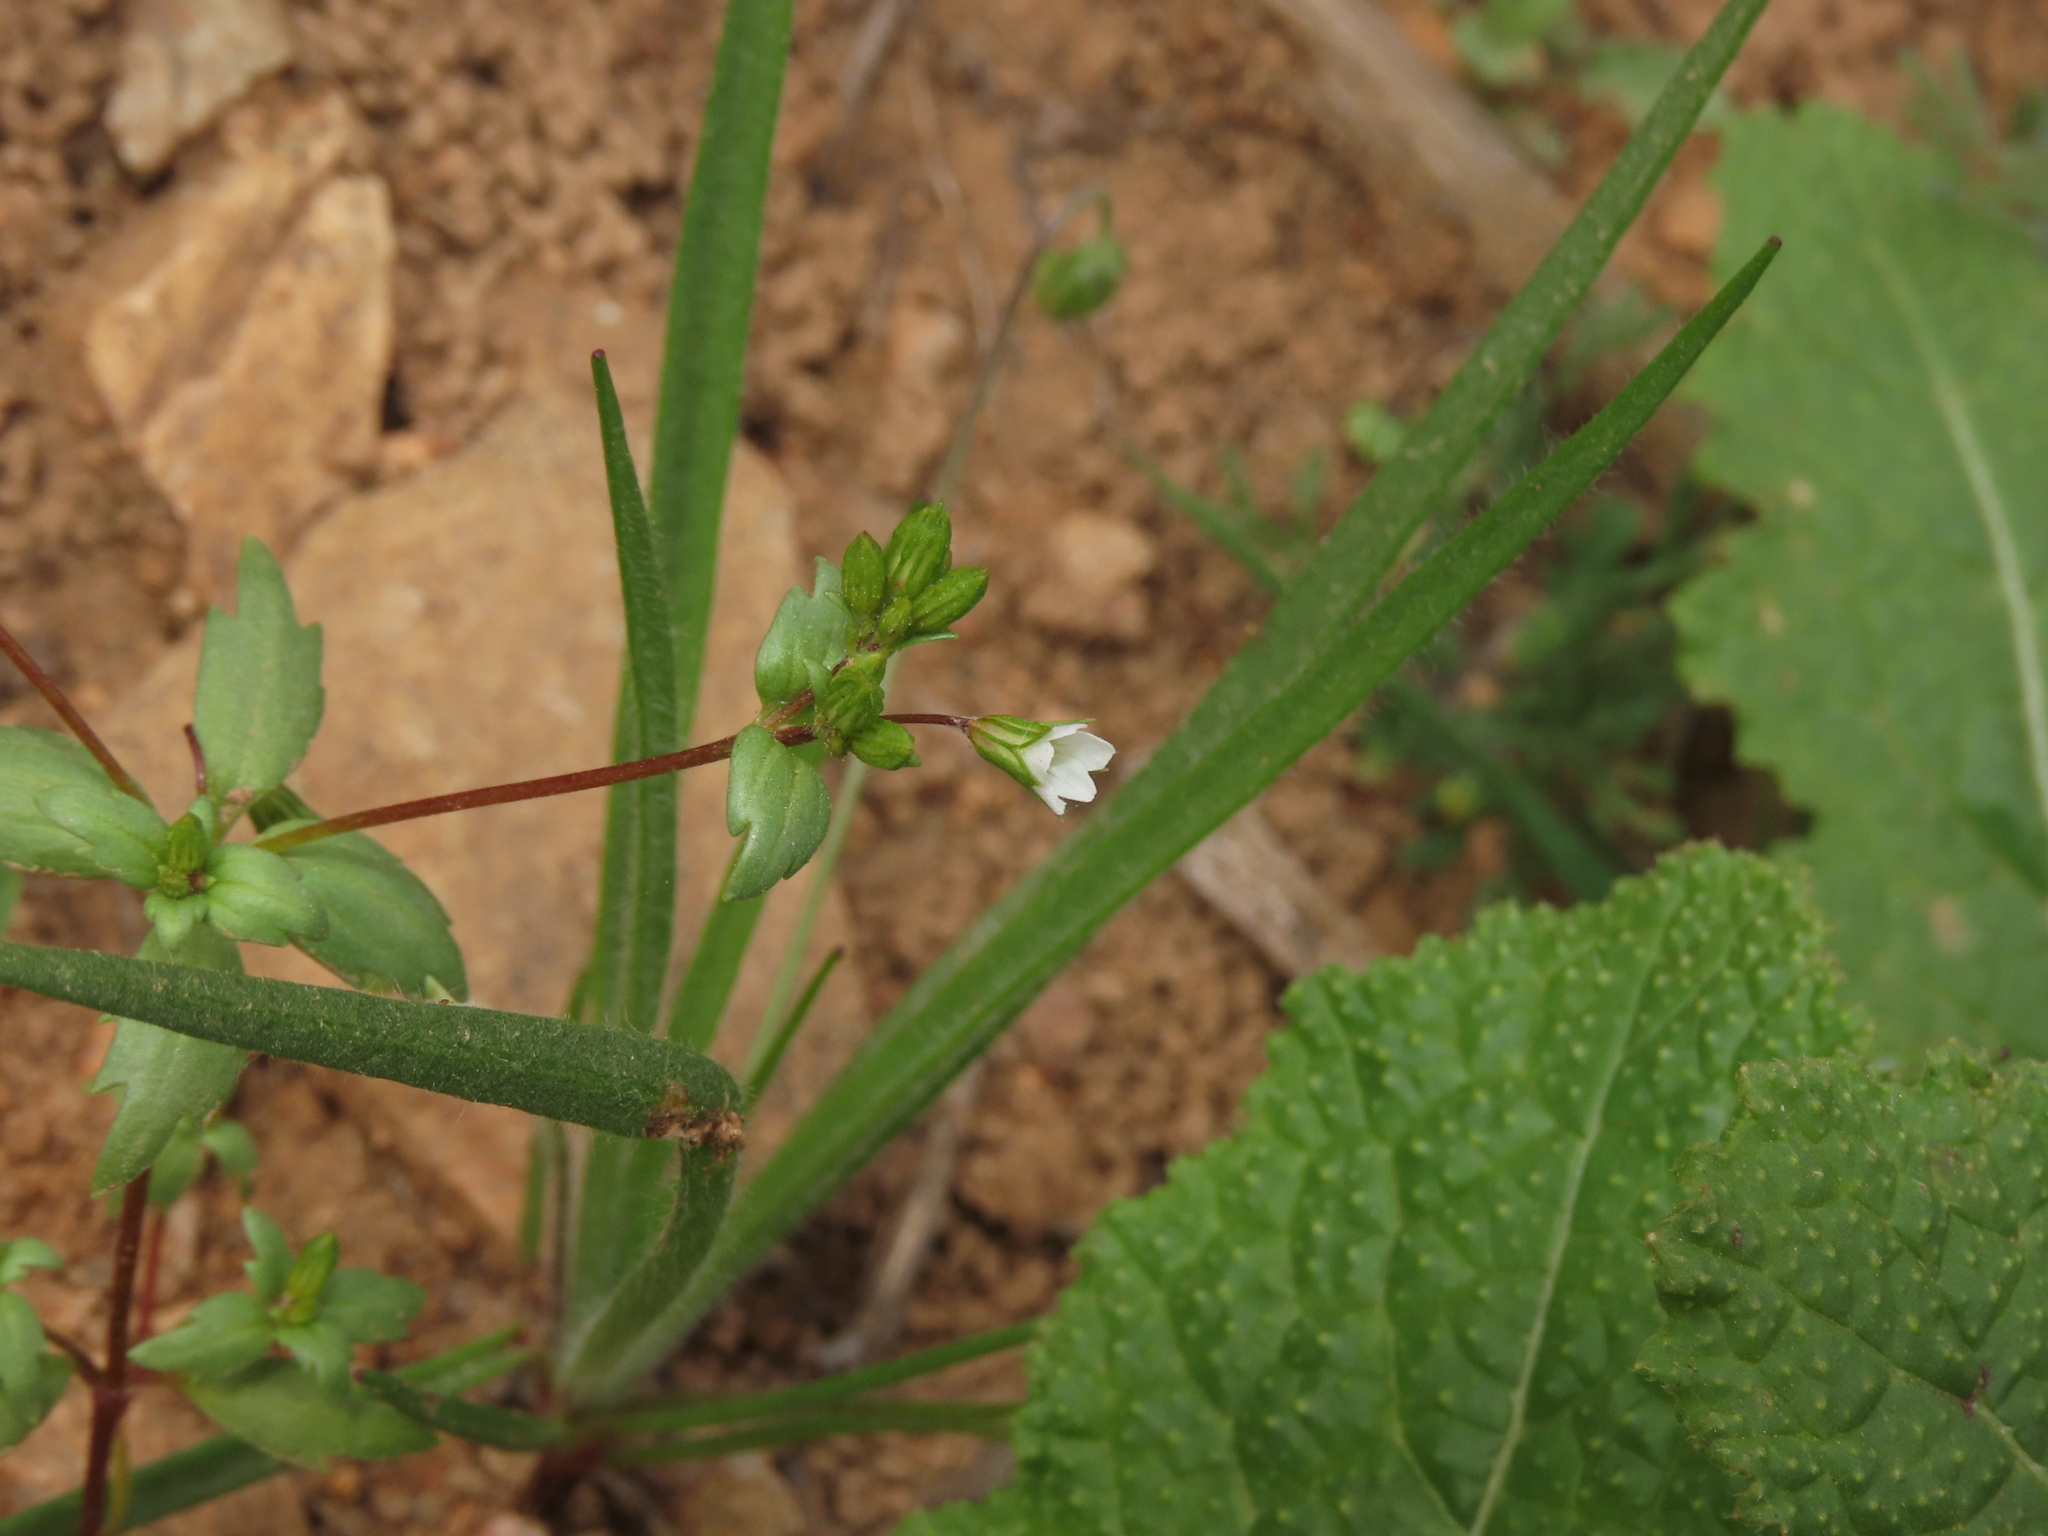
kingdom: Plantae
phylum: Tracheophyta
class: Magnoliopsida
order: Geraniales
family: Vivianiaceae
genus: Viviania
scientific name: Viviania tenuicaulis
